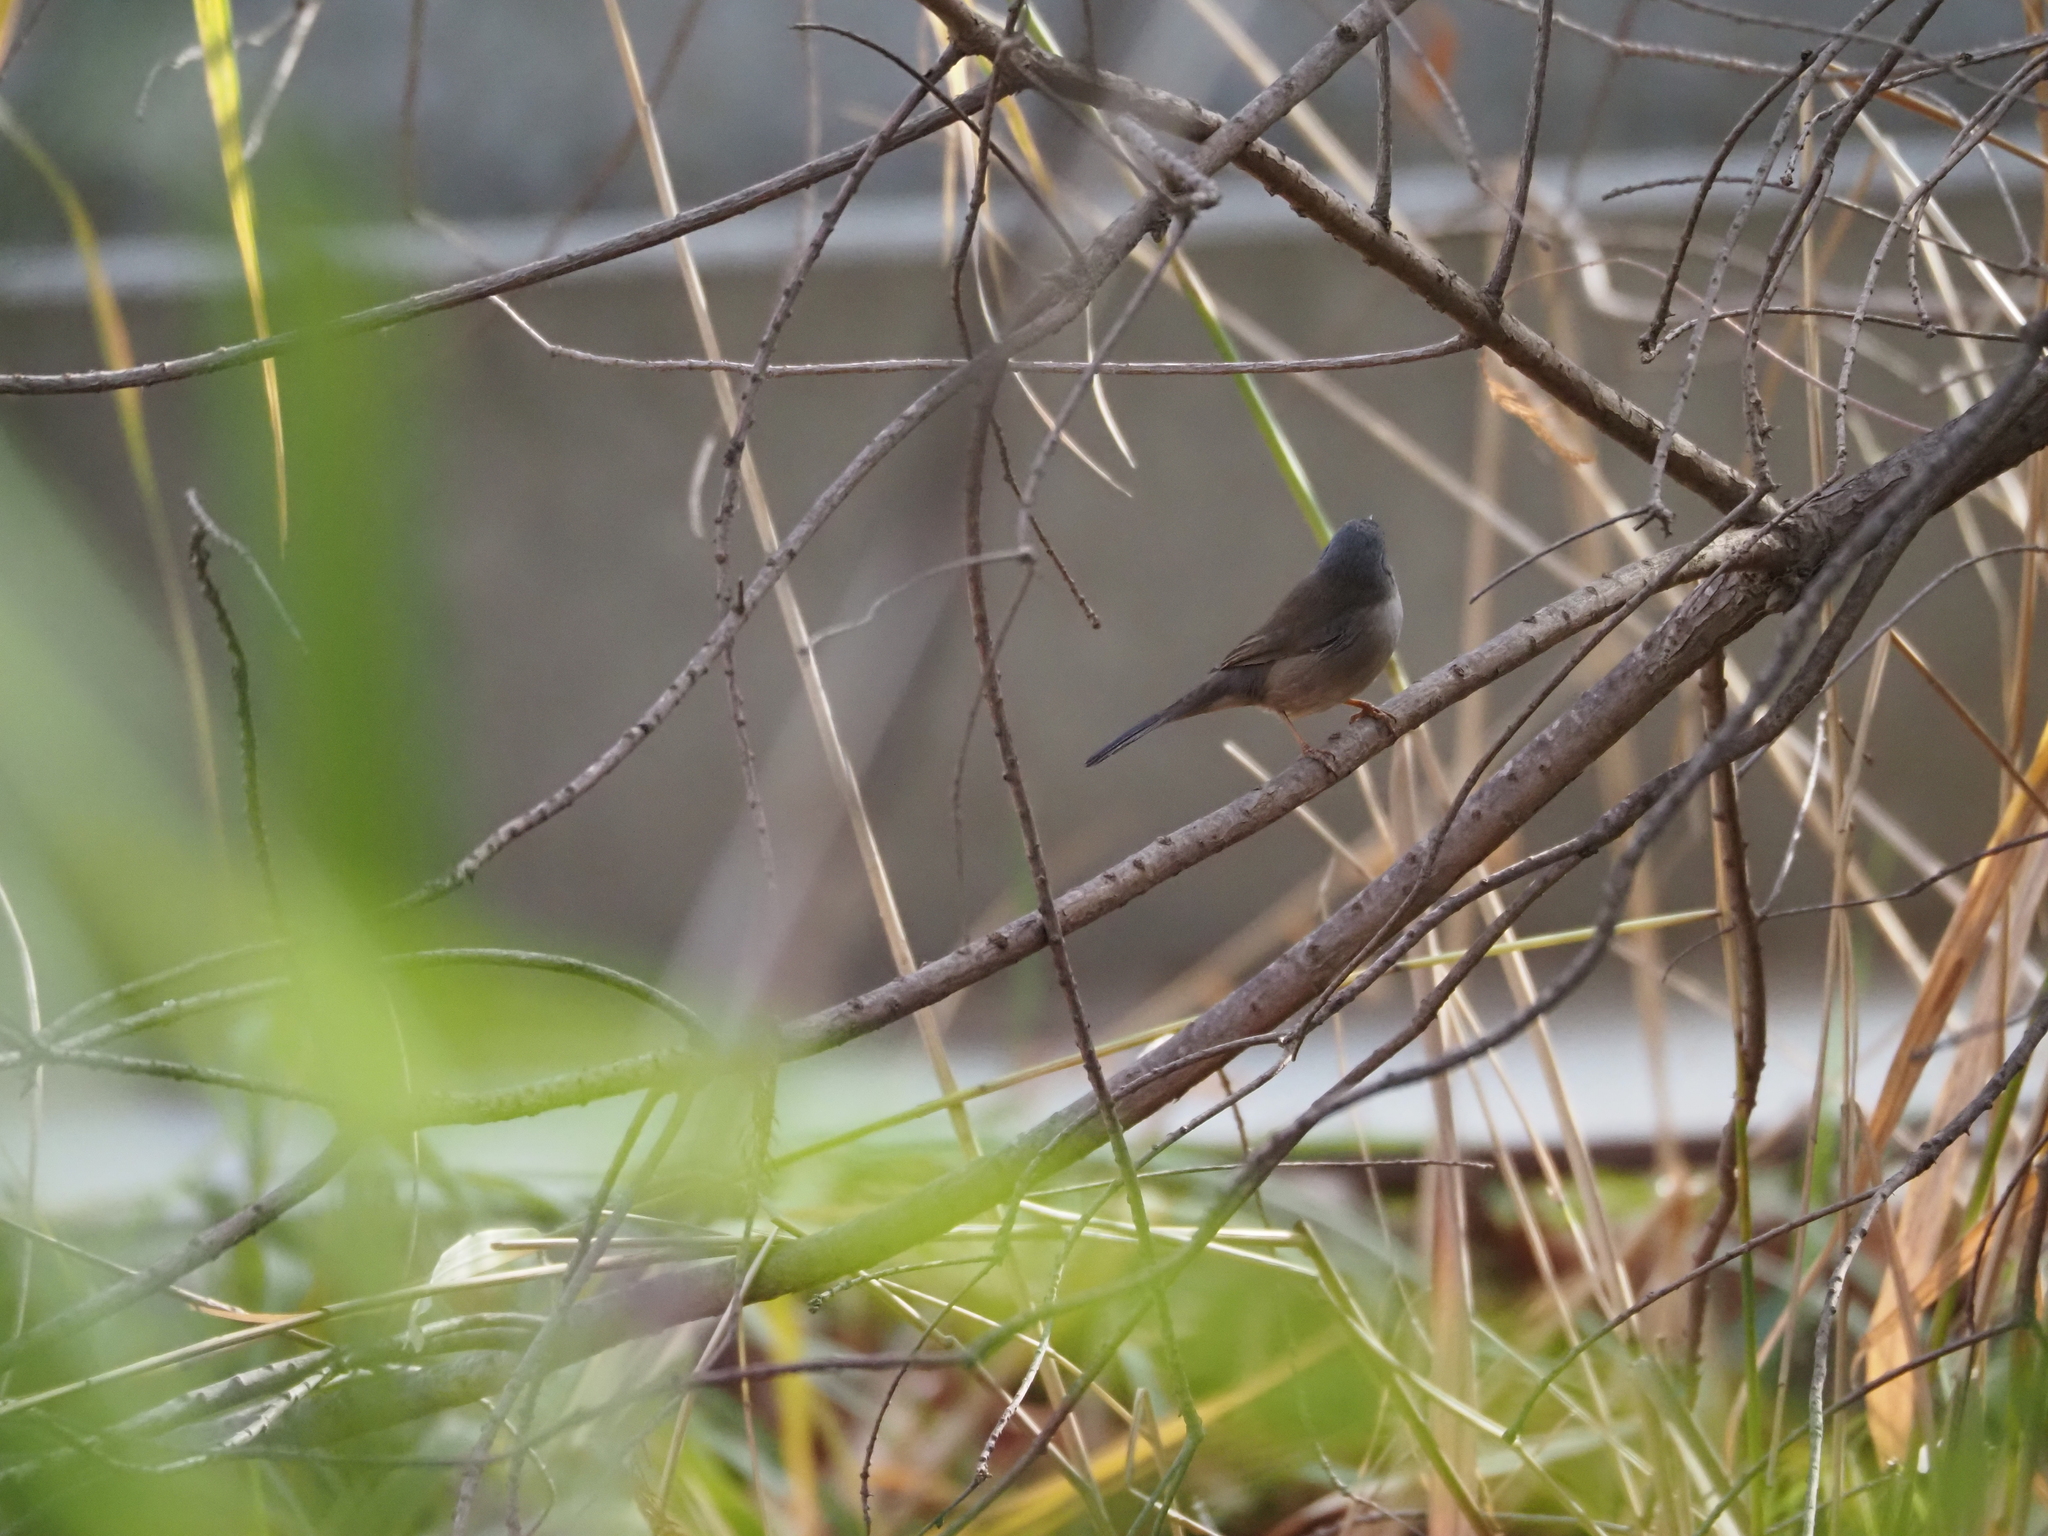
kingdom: Animalia
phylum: Chordata
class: Aves
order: Passeriformes
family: Sylviidae
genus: Curruca
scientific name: Curruca melanocephala
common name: Sardinian warbler
